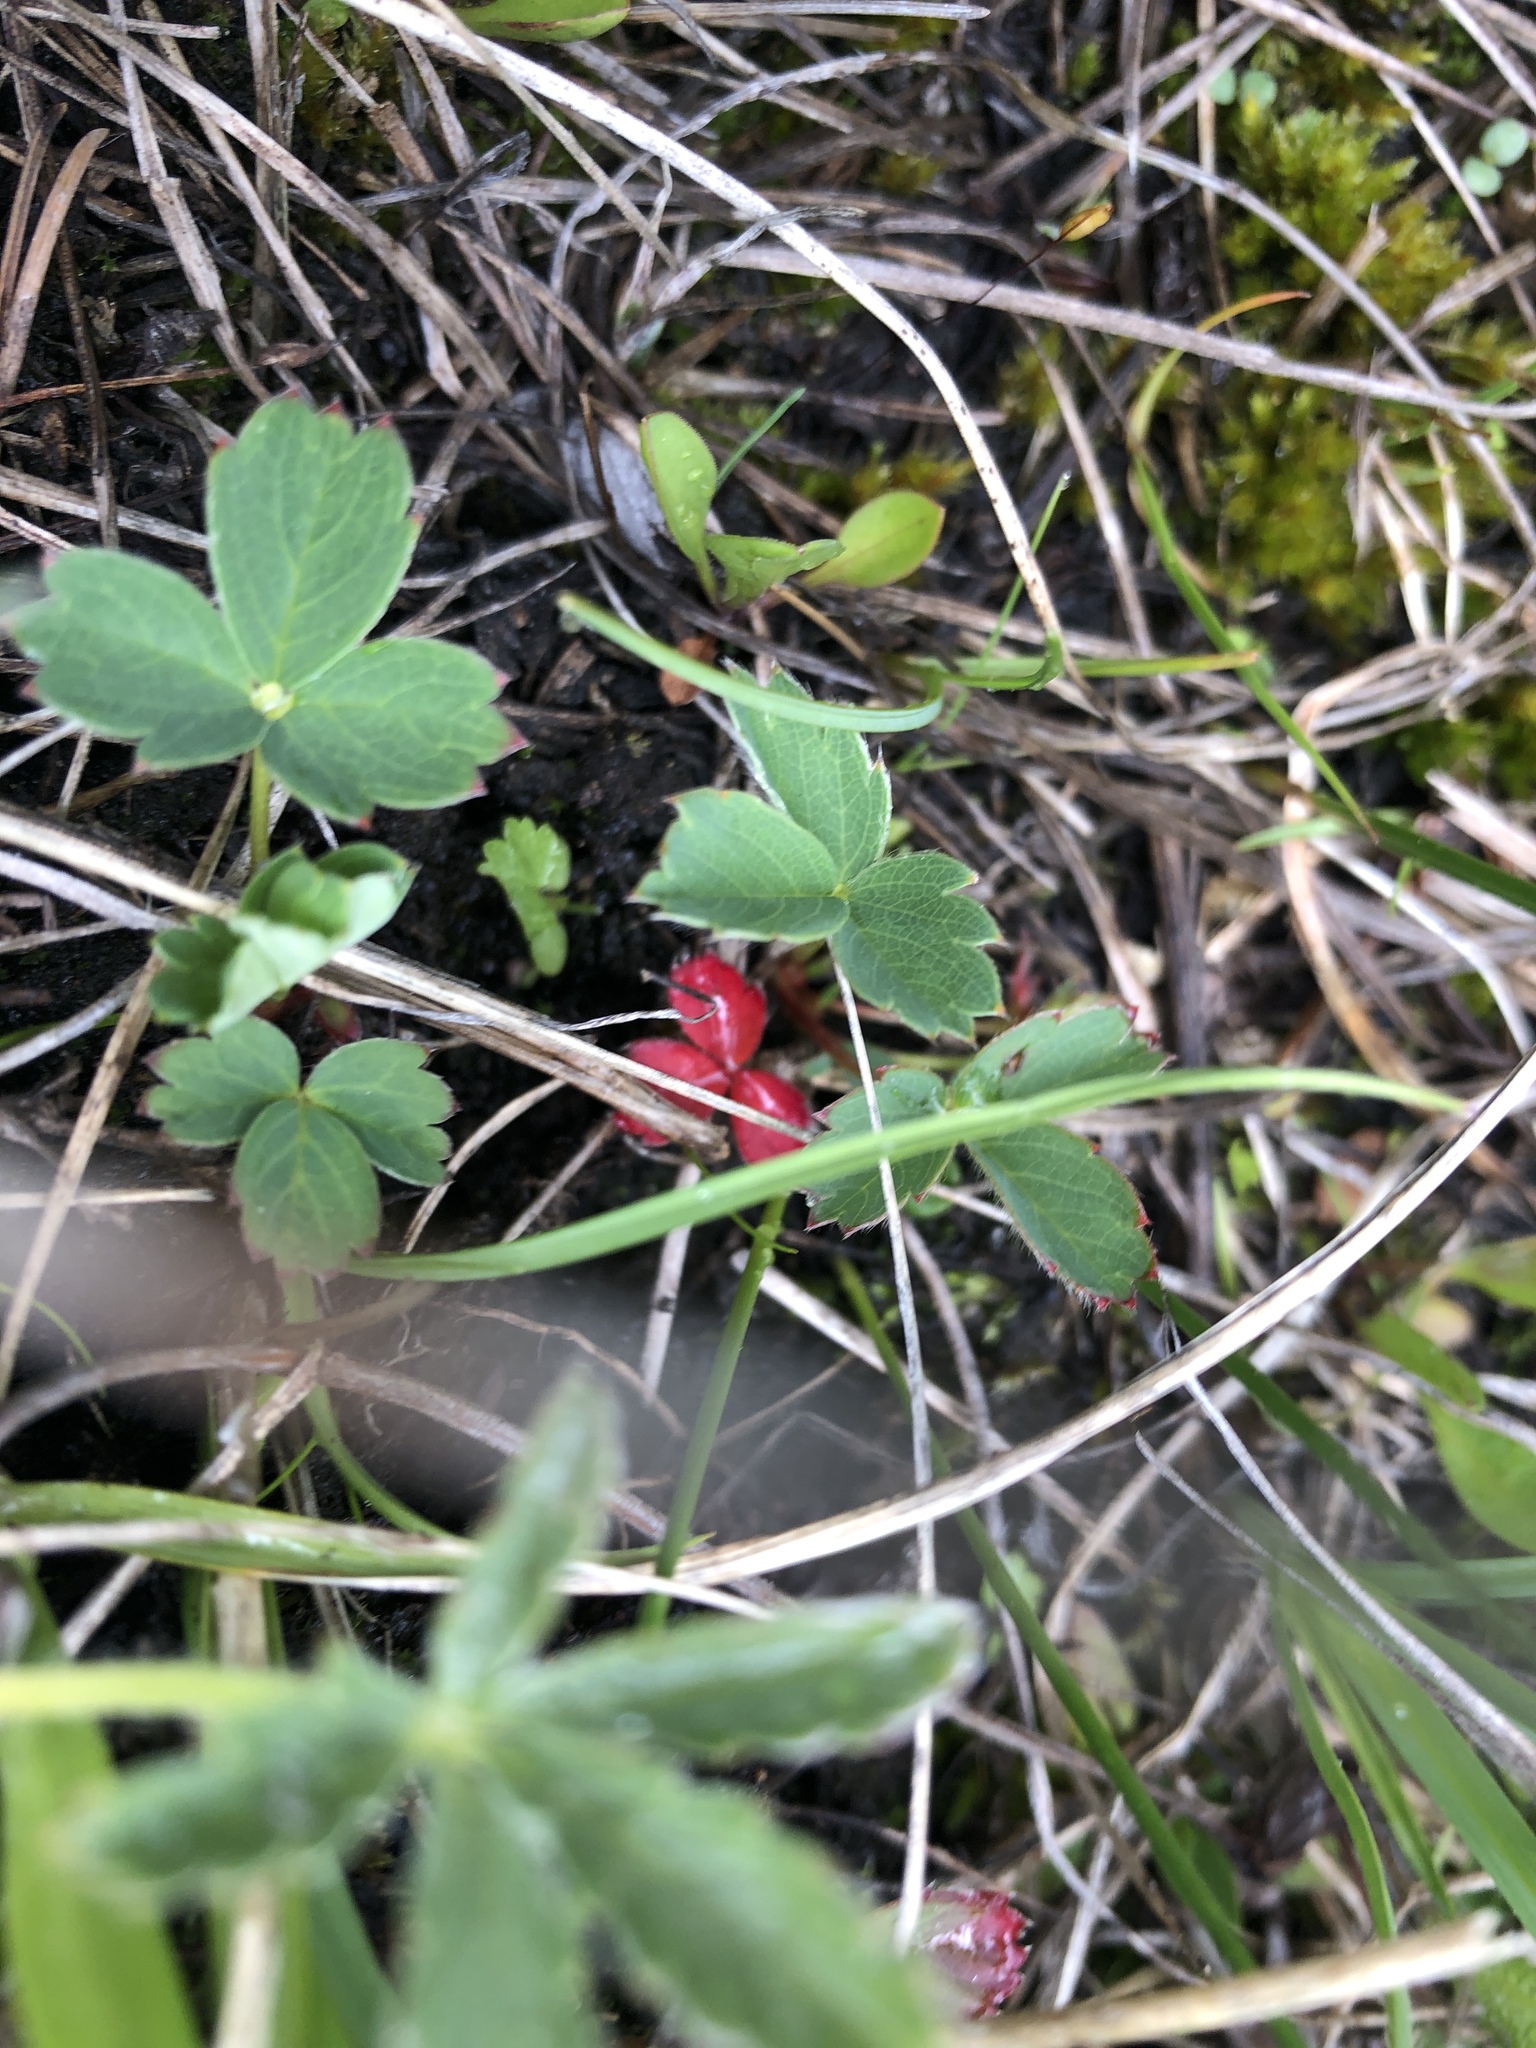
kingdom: Plantae
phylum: Tracheophyta
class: Magnoliopsida
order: Rosales
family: Rosaceae
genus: Fragaria
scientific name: Fragaria virginiana
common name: Thickleaved wild strawberry
